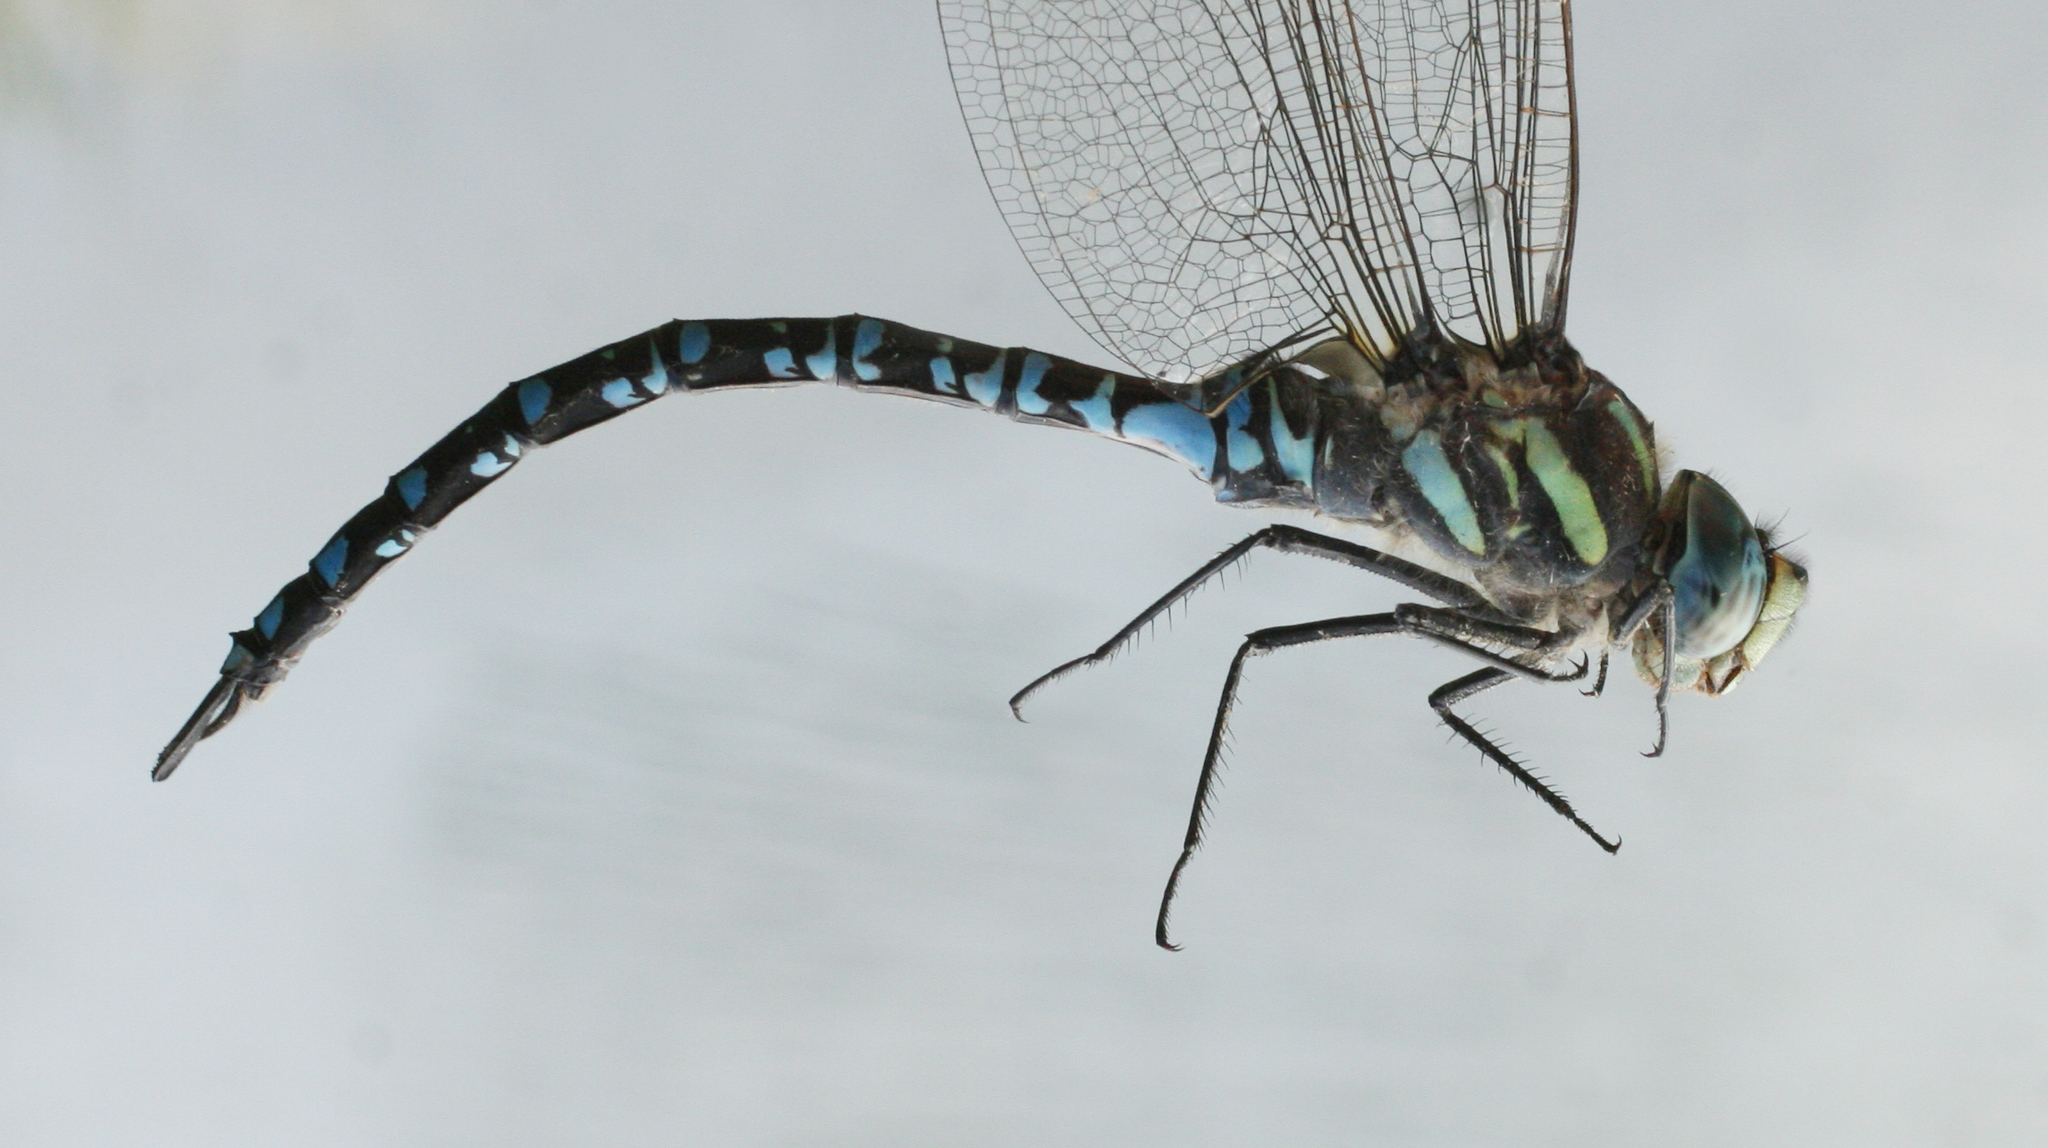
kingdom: Animalia
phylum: Arthropoda
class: Insecta
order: Odonata
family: Aeshnidae
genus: Aeshna
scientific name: Aeshna crenata
